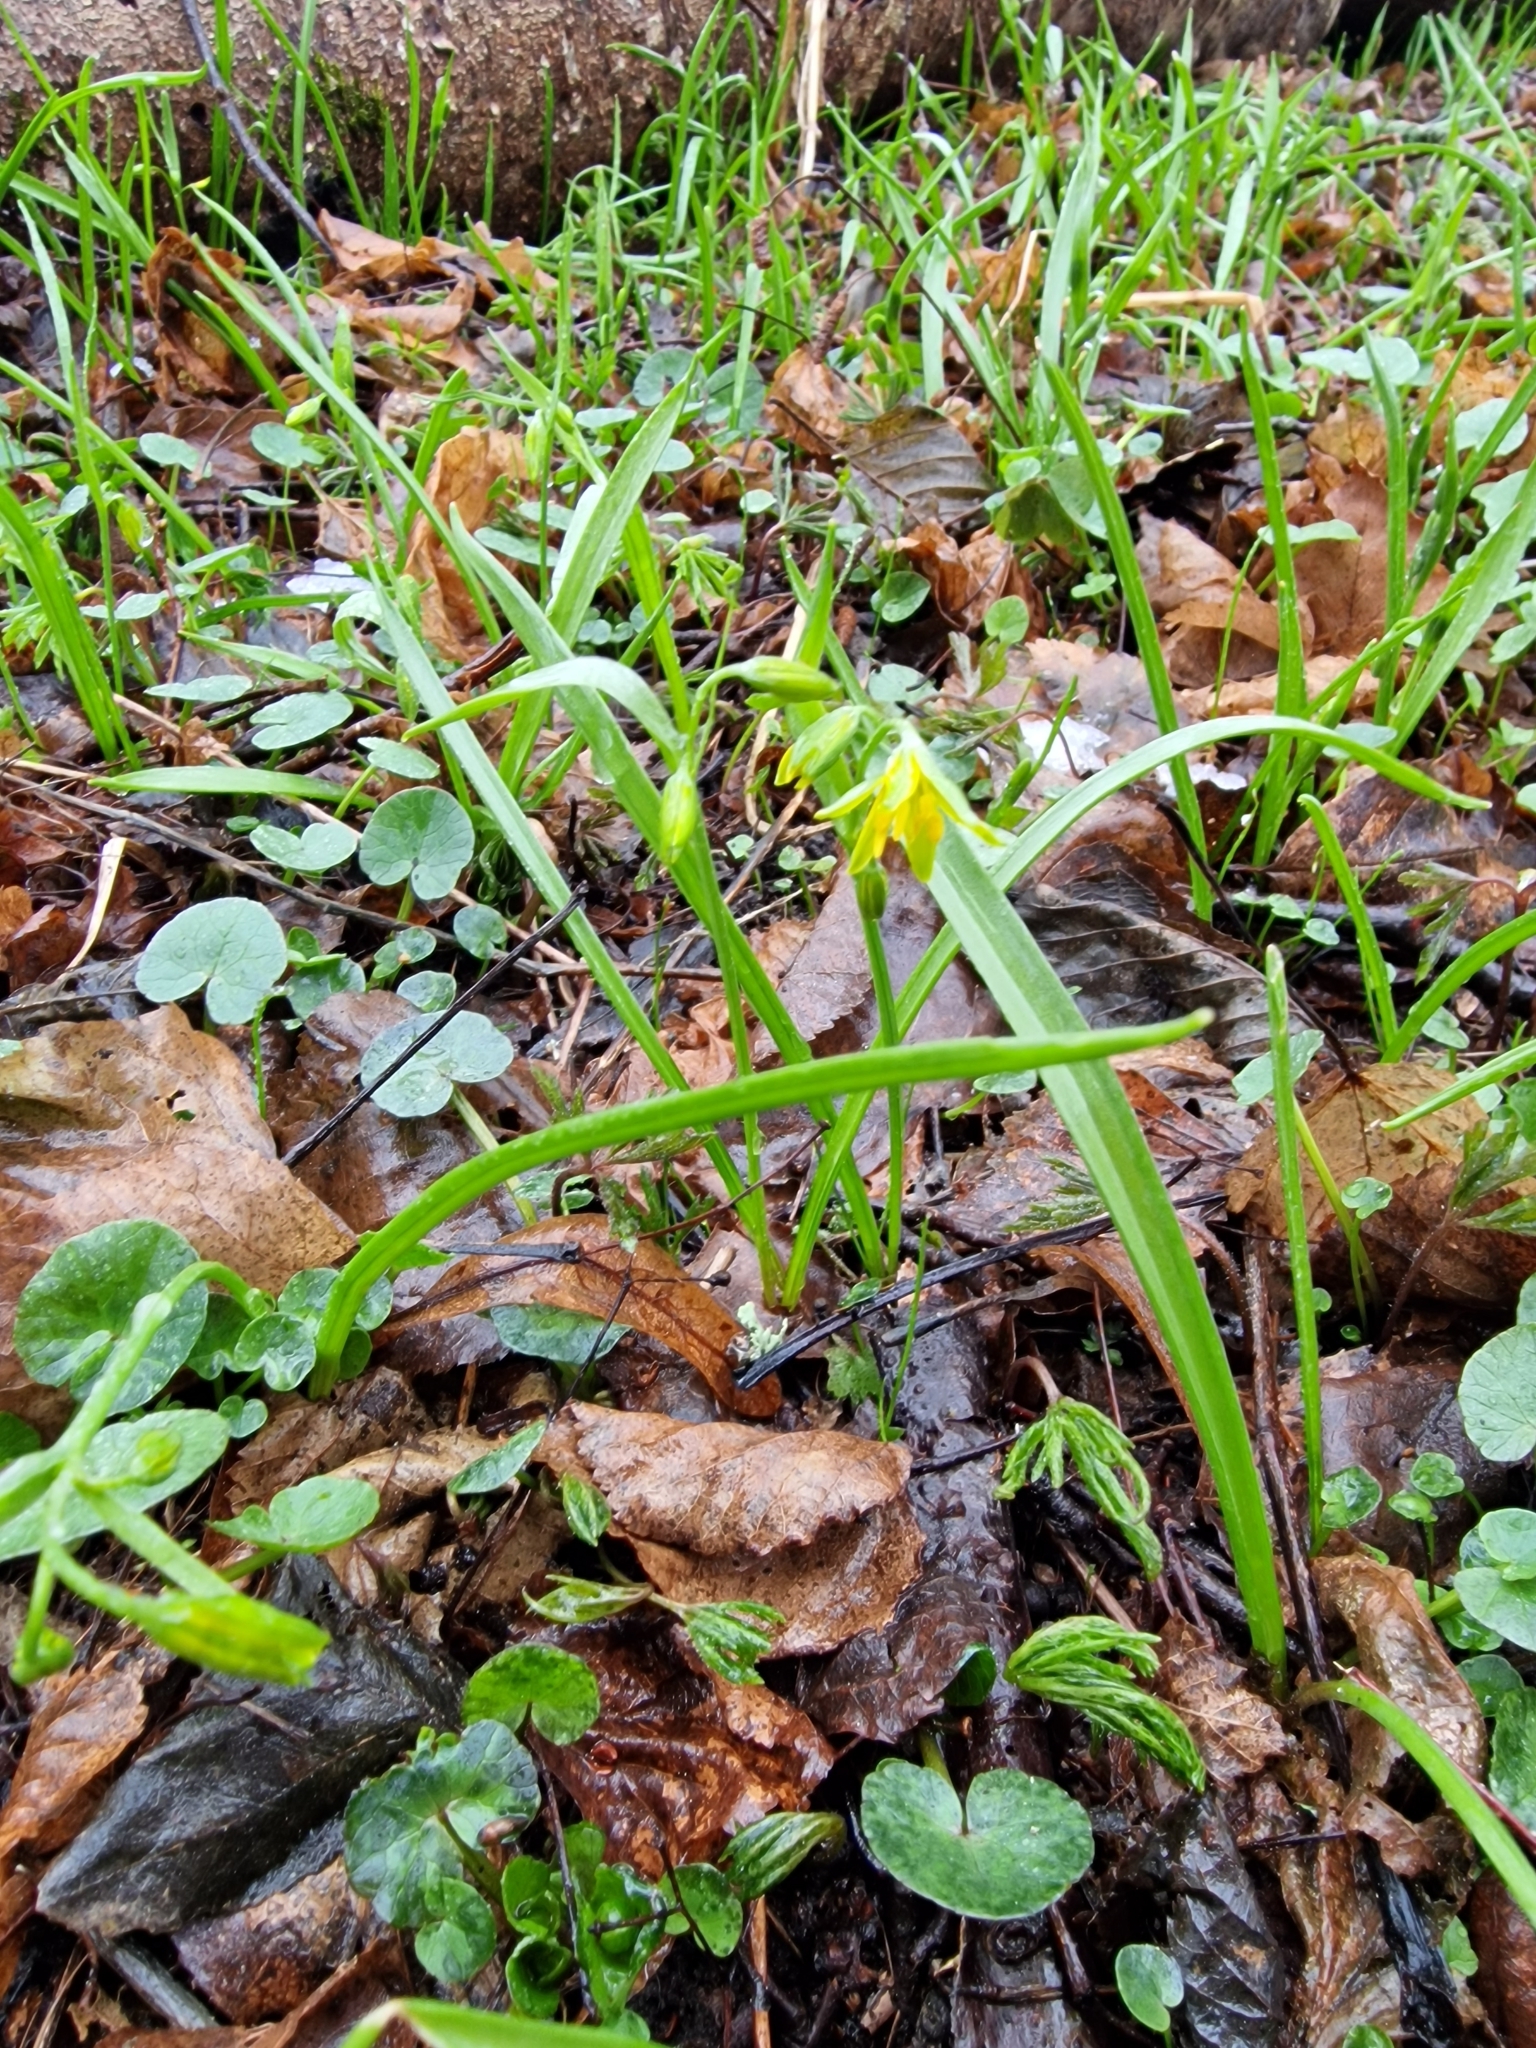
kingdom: Plantae
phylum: Tracheophyta
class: Liliopsida
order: Liliales
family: Liliaceae
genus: Gagea
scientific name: Gagea lutea
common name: Yellow star-of-bethlehem
